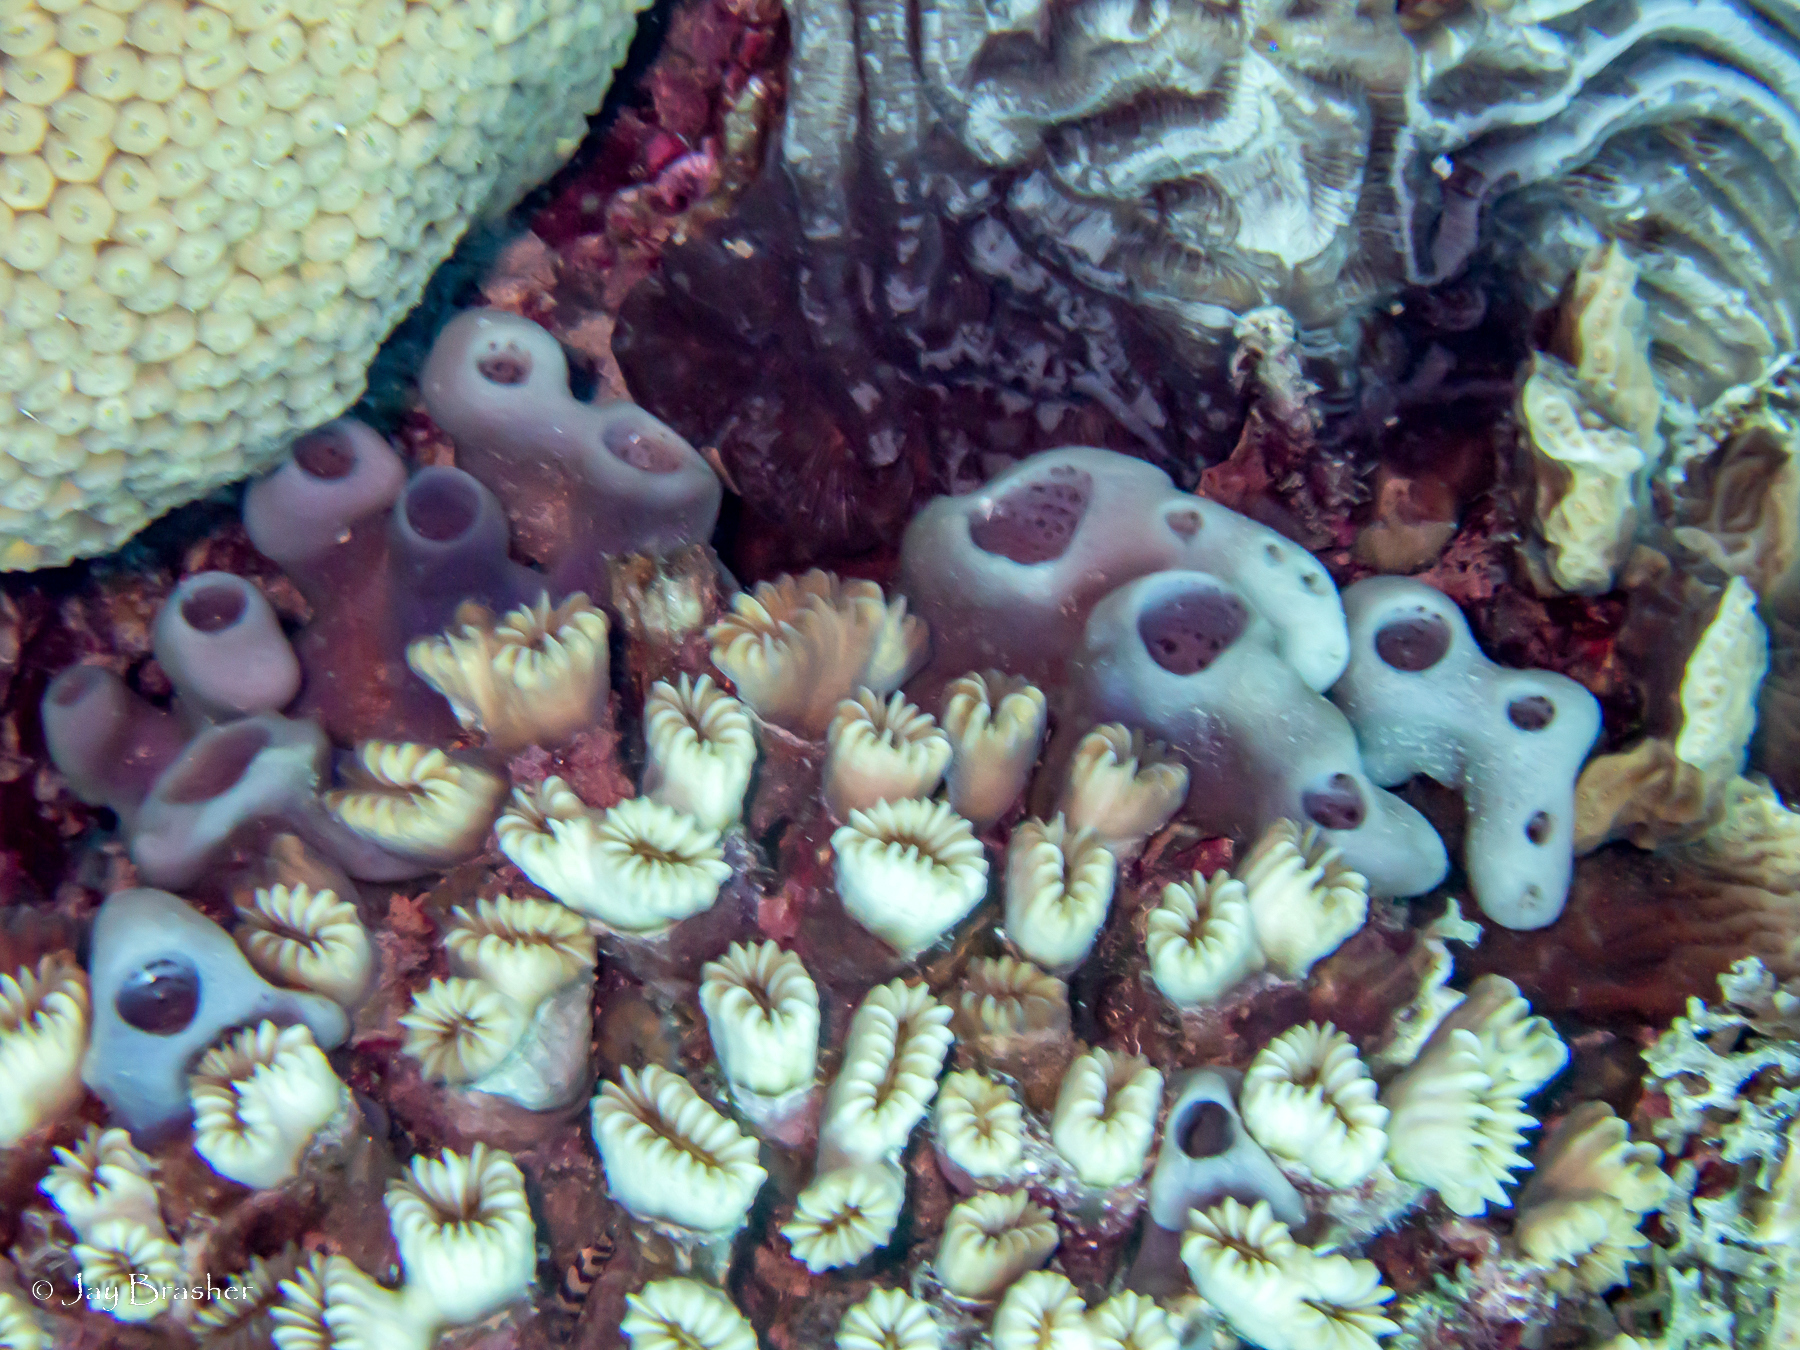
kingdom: Animalia
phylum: Porifera
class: Demospongiae
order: Haplosclerida
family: Callyspongiidae
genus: Callyspongia
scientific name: Callyspongia fallax
